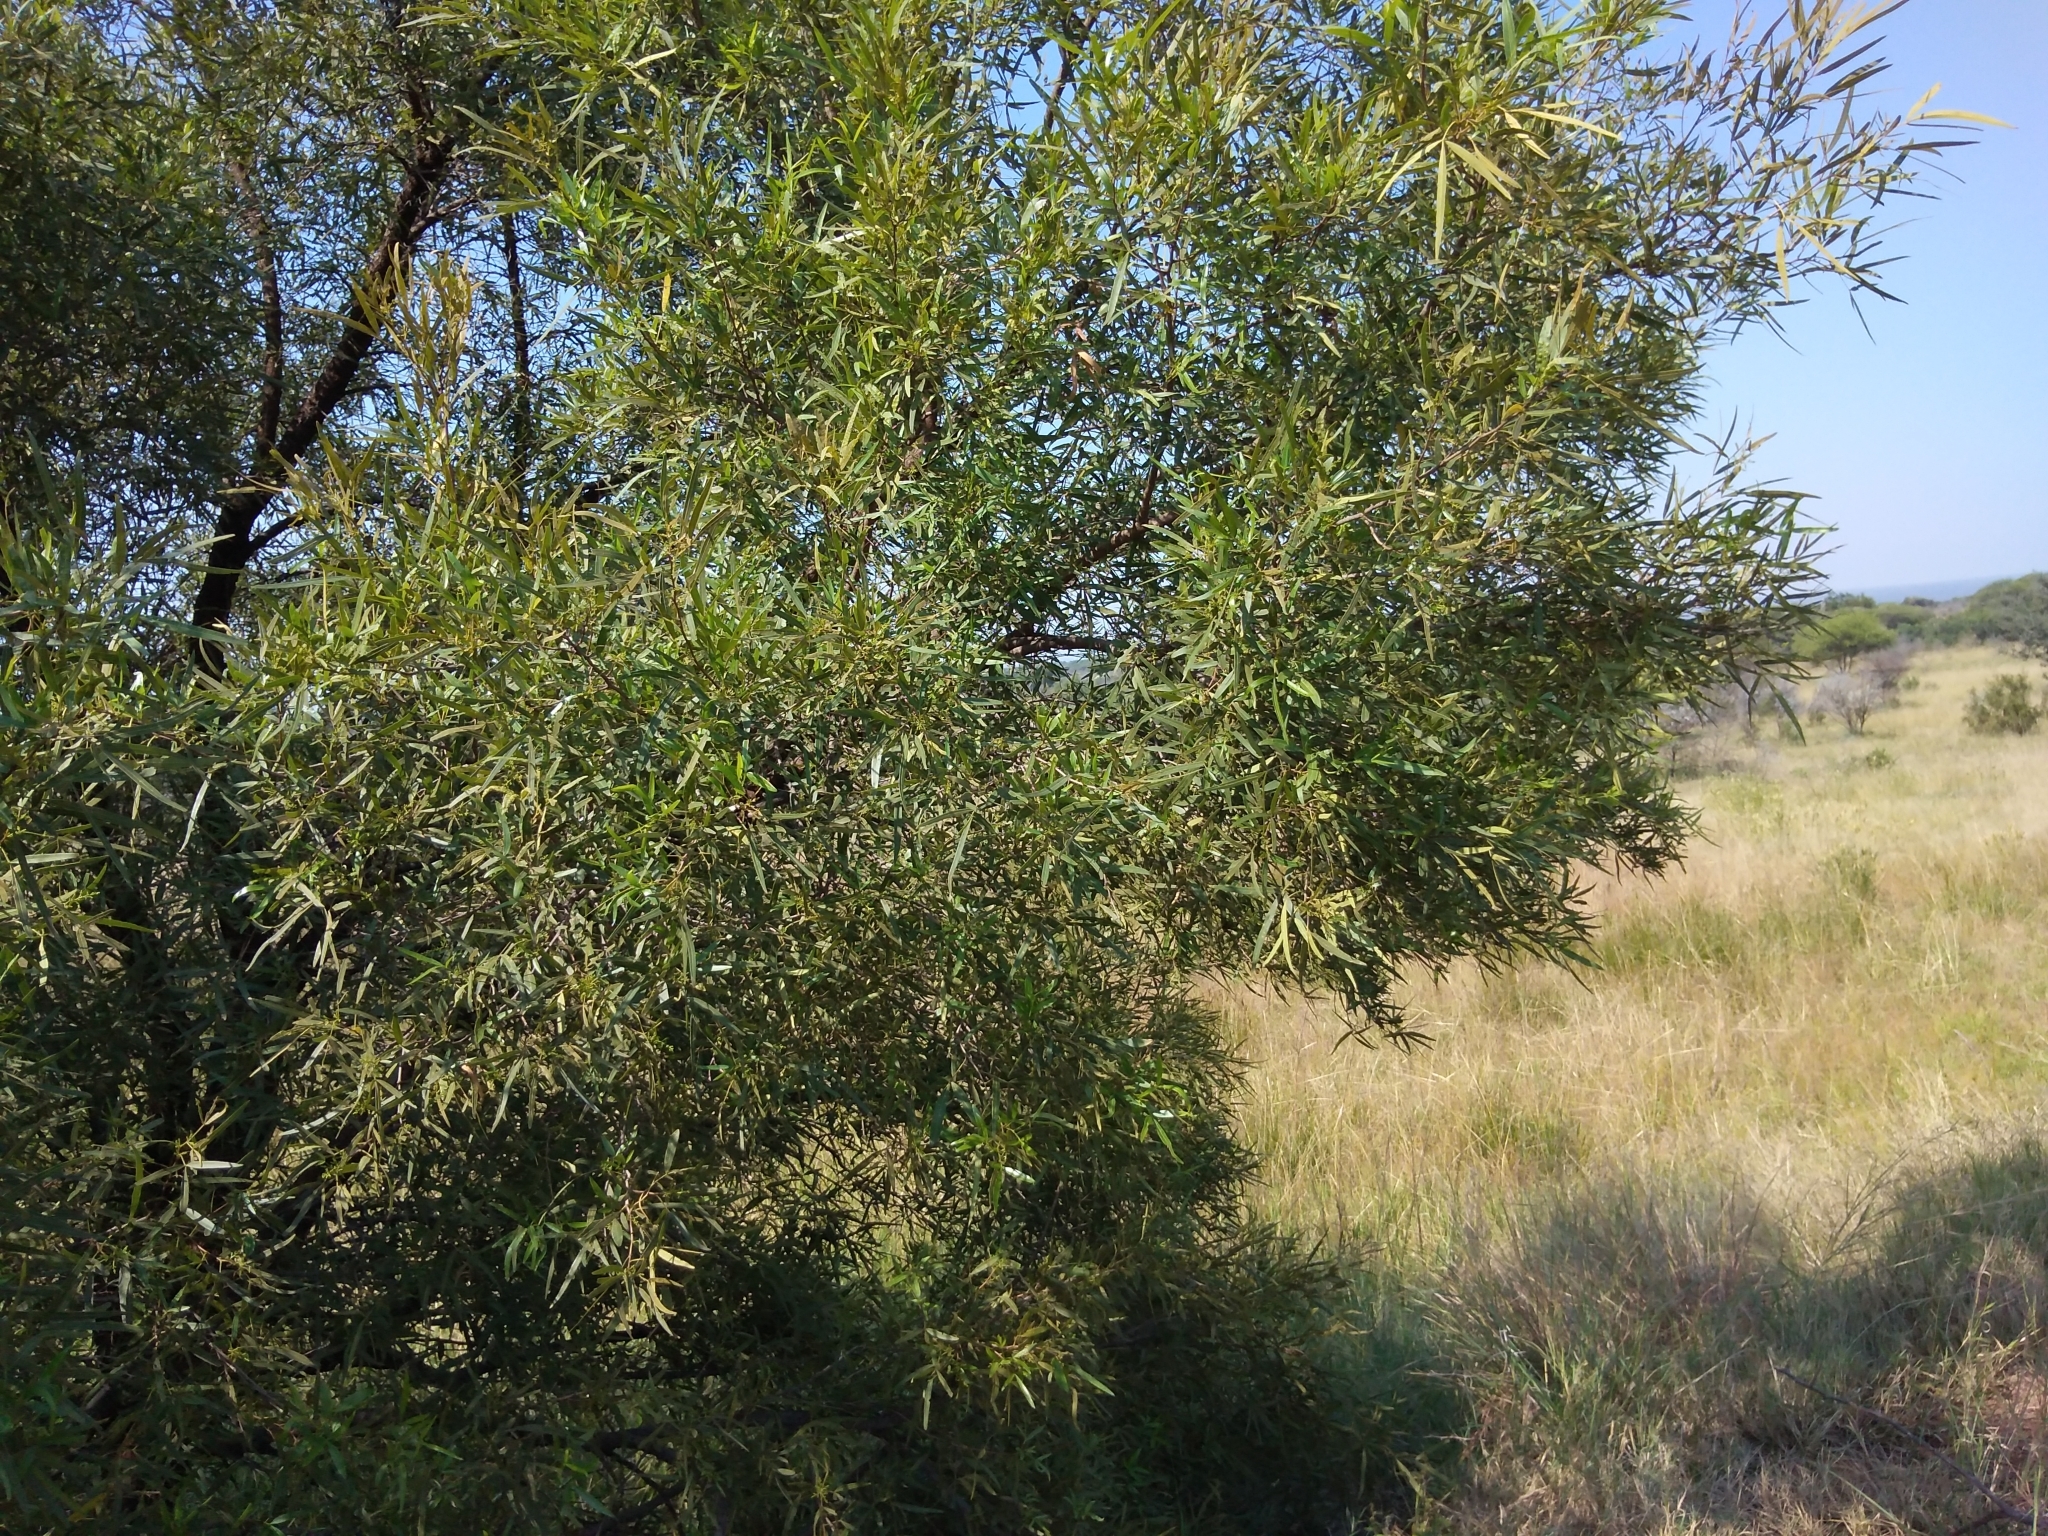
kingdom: Plantae
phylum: Tracheophyta
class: Magnoliopsida
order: Sapindales
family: Anacardiaceae
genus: Searsia
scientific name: Searsia lancea
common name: Cashew
